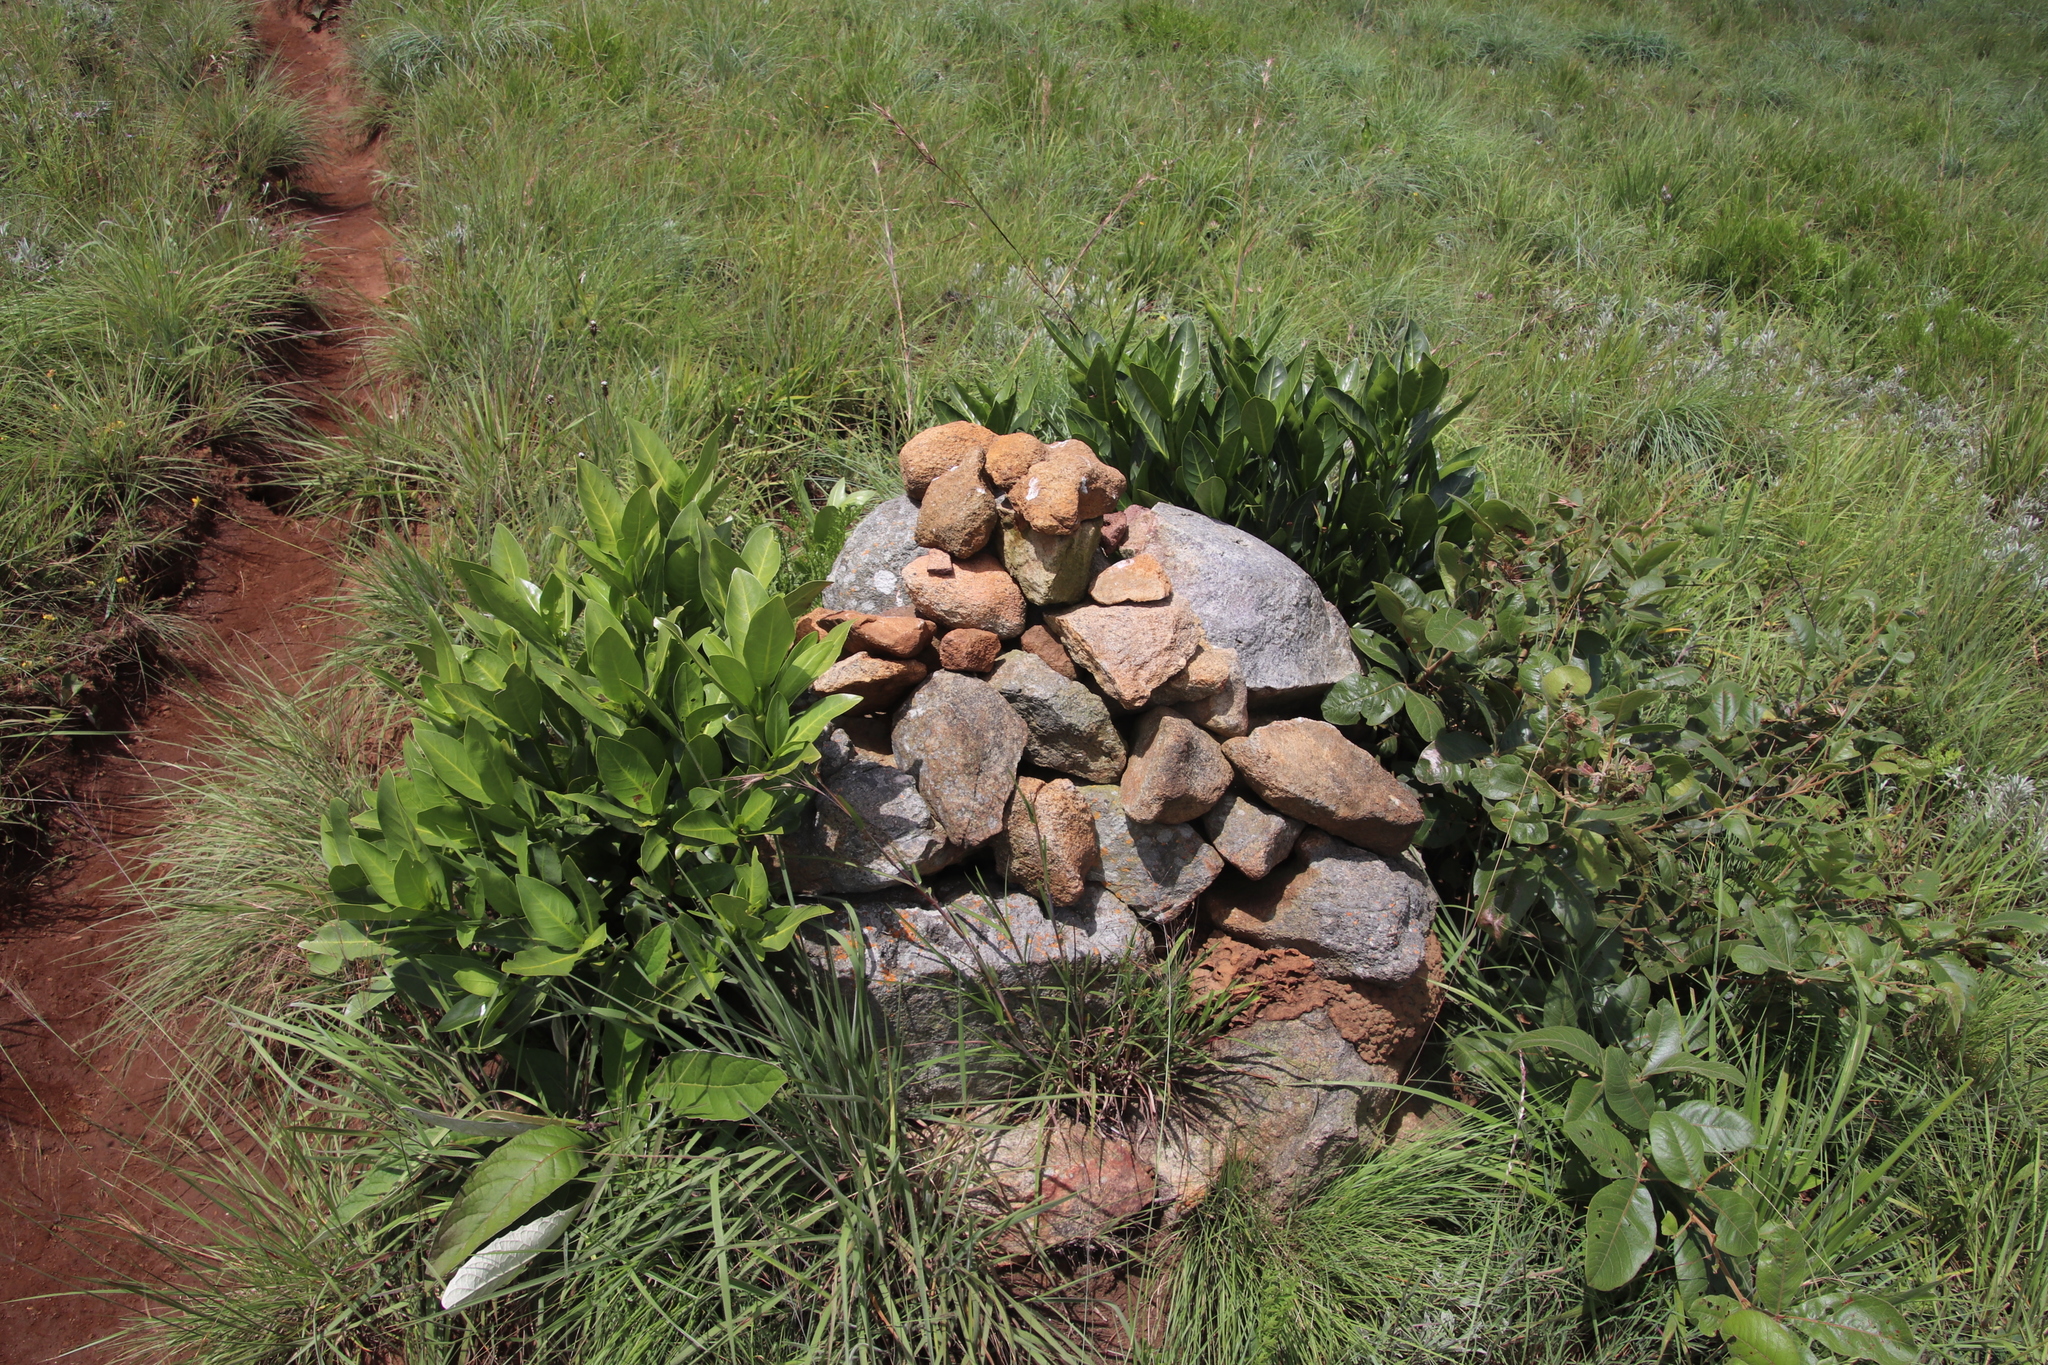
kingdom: Plantae
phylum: Tracheophyta
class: Magnoliopsida
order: Gentianales
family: Rubiaceae
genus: Psychotria
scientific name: Psychotria
